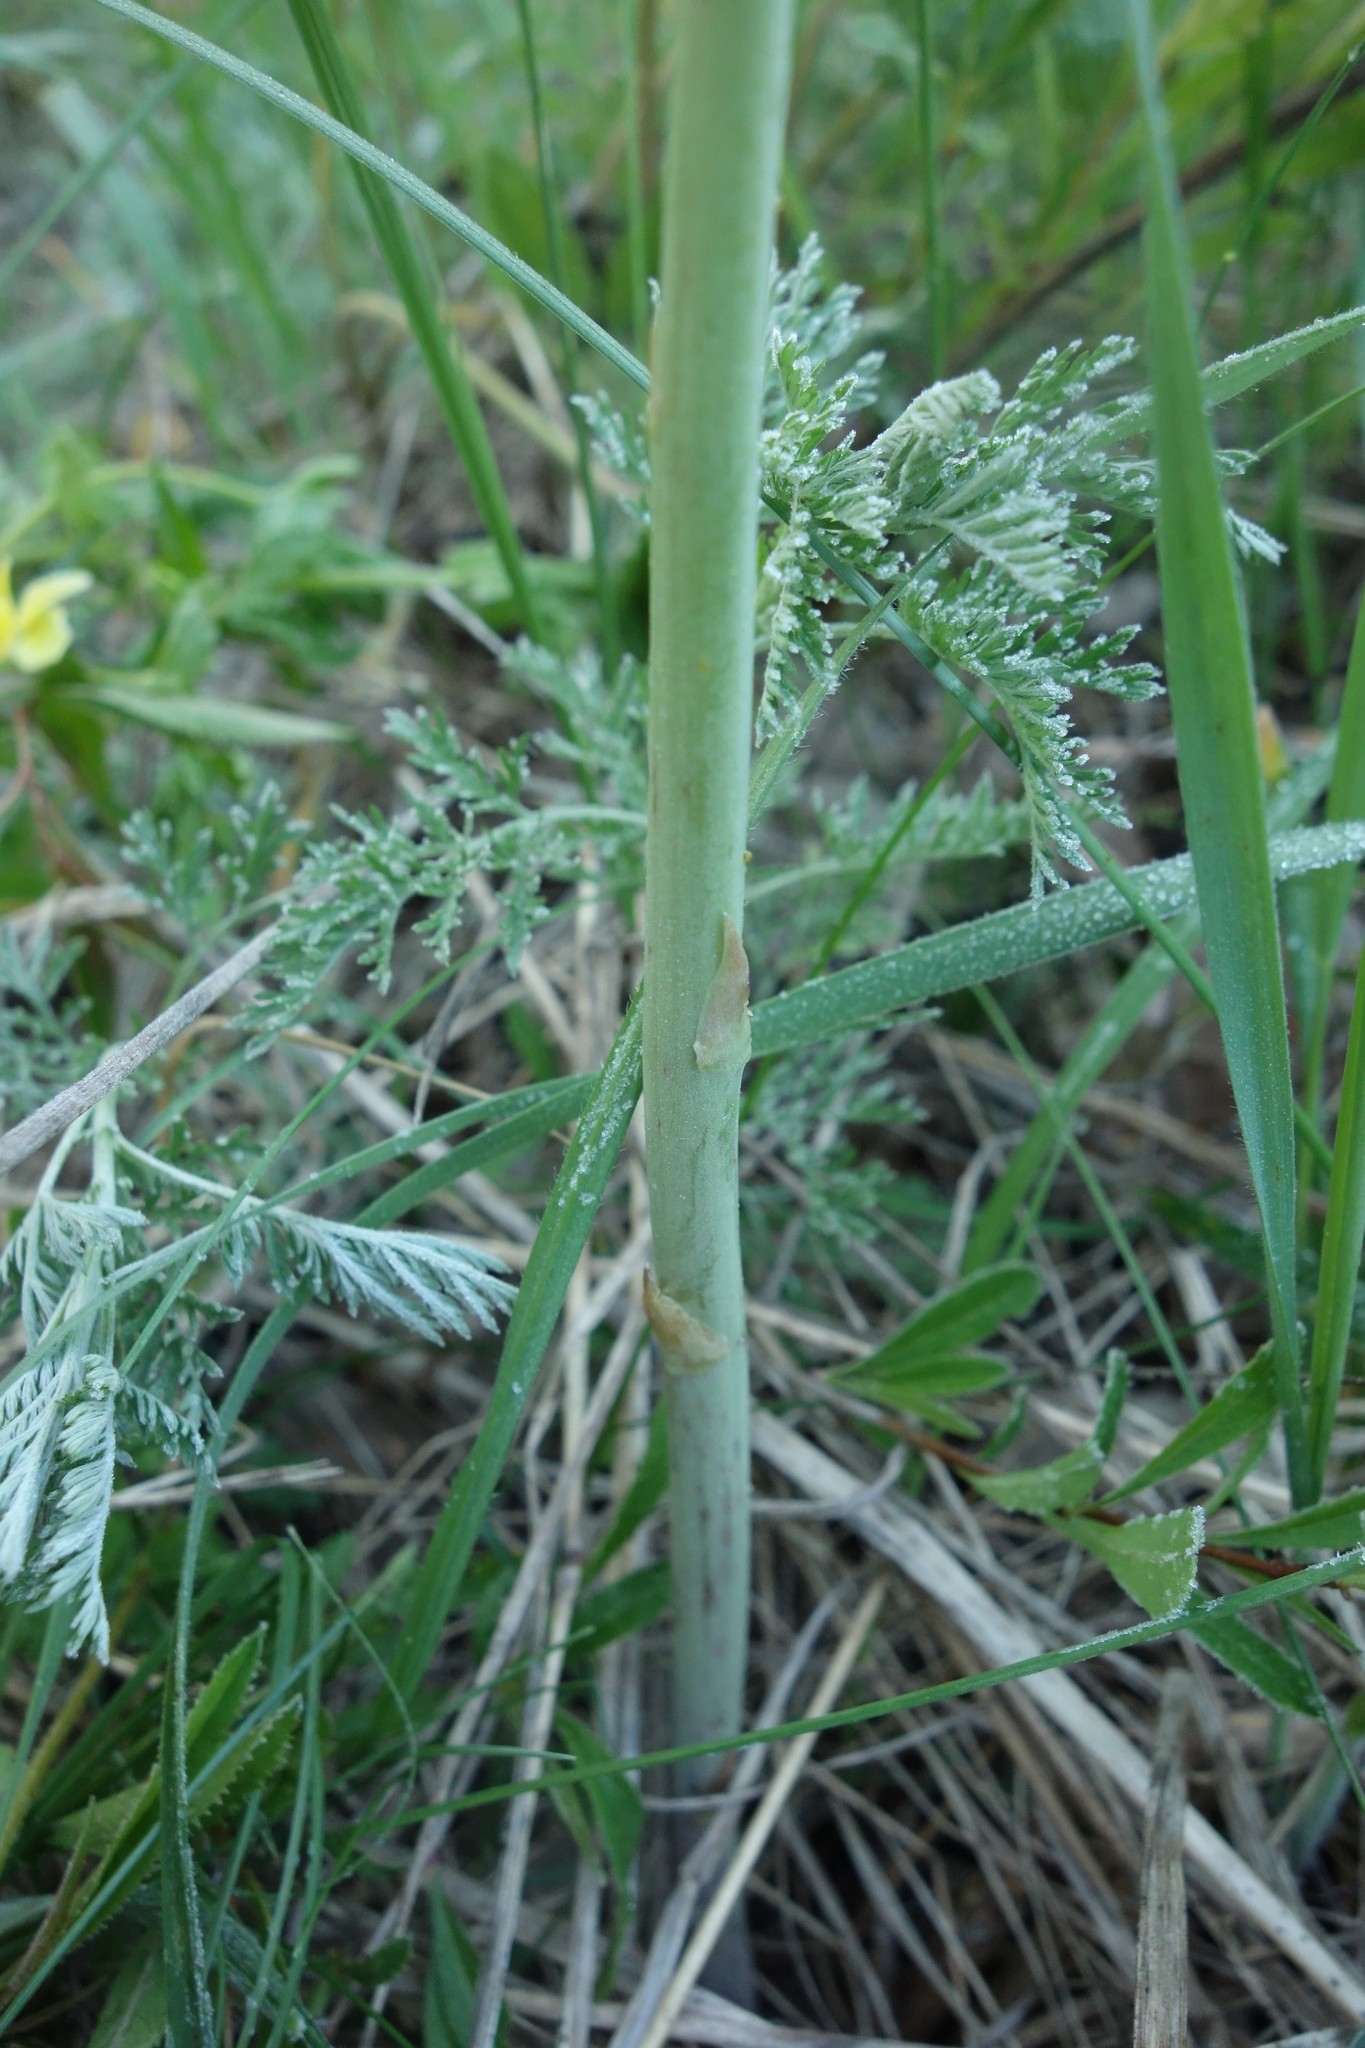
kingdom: Plantae
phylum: Tracheophyta
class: Liliopsida
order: Asparagales
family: Asparagaceae
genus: Asparagus
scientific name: Asparagus officinalis
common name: Garden asparagus
